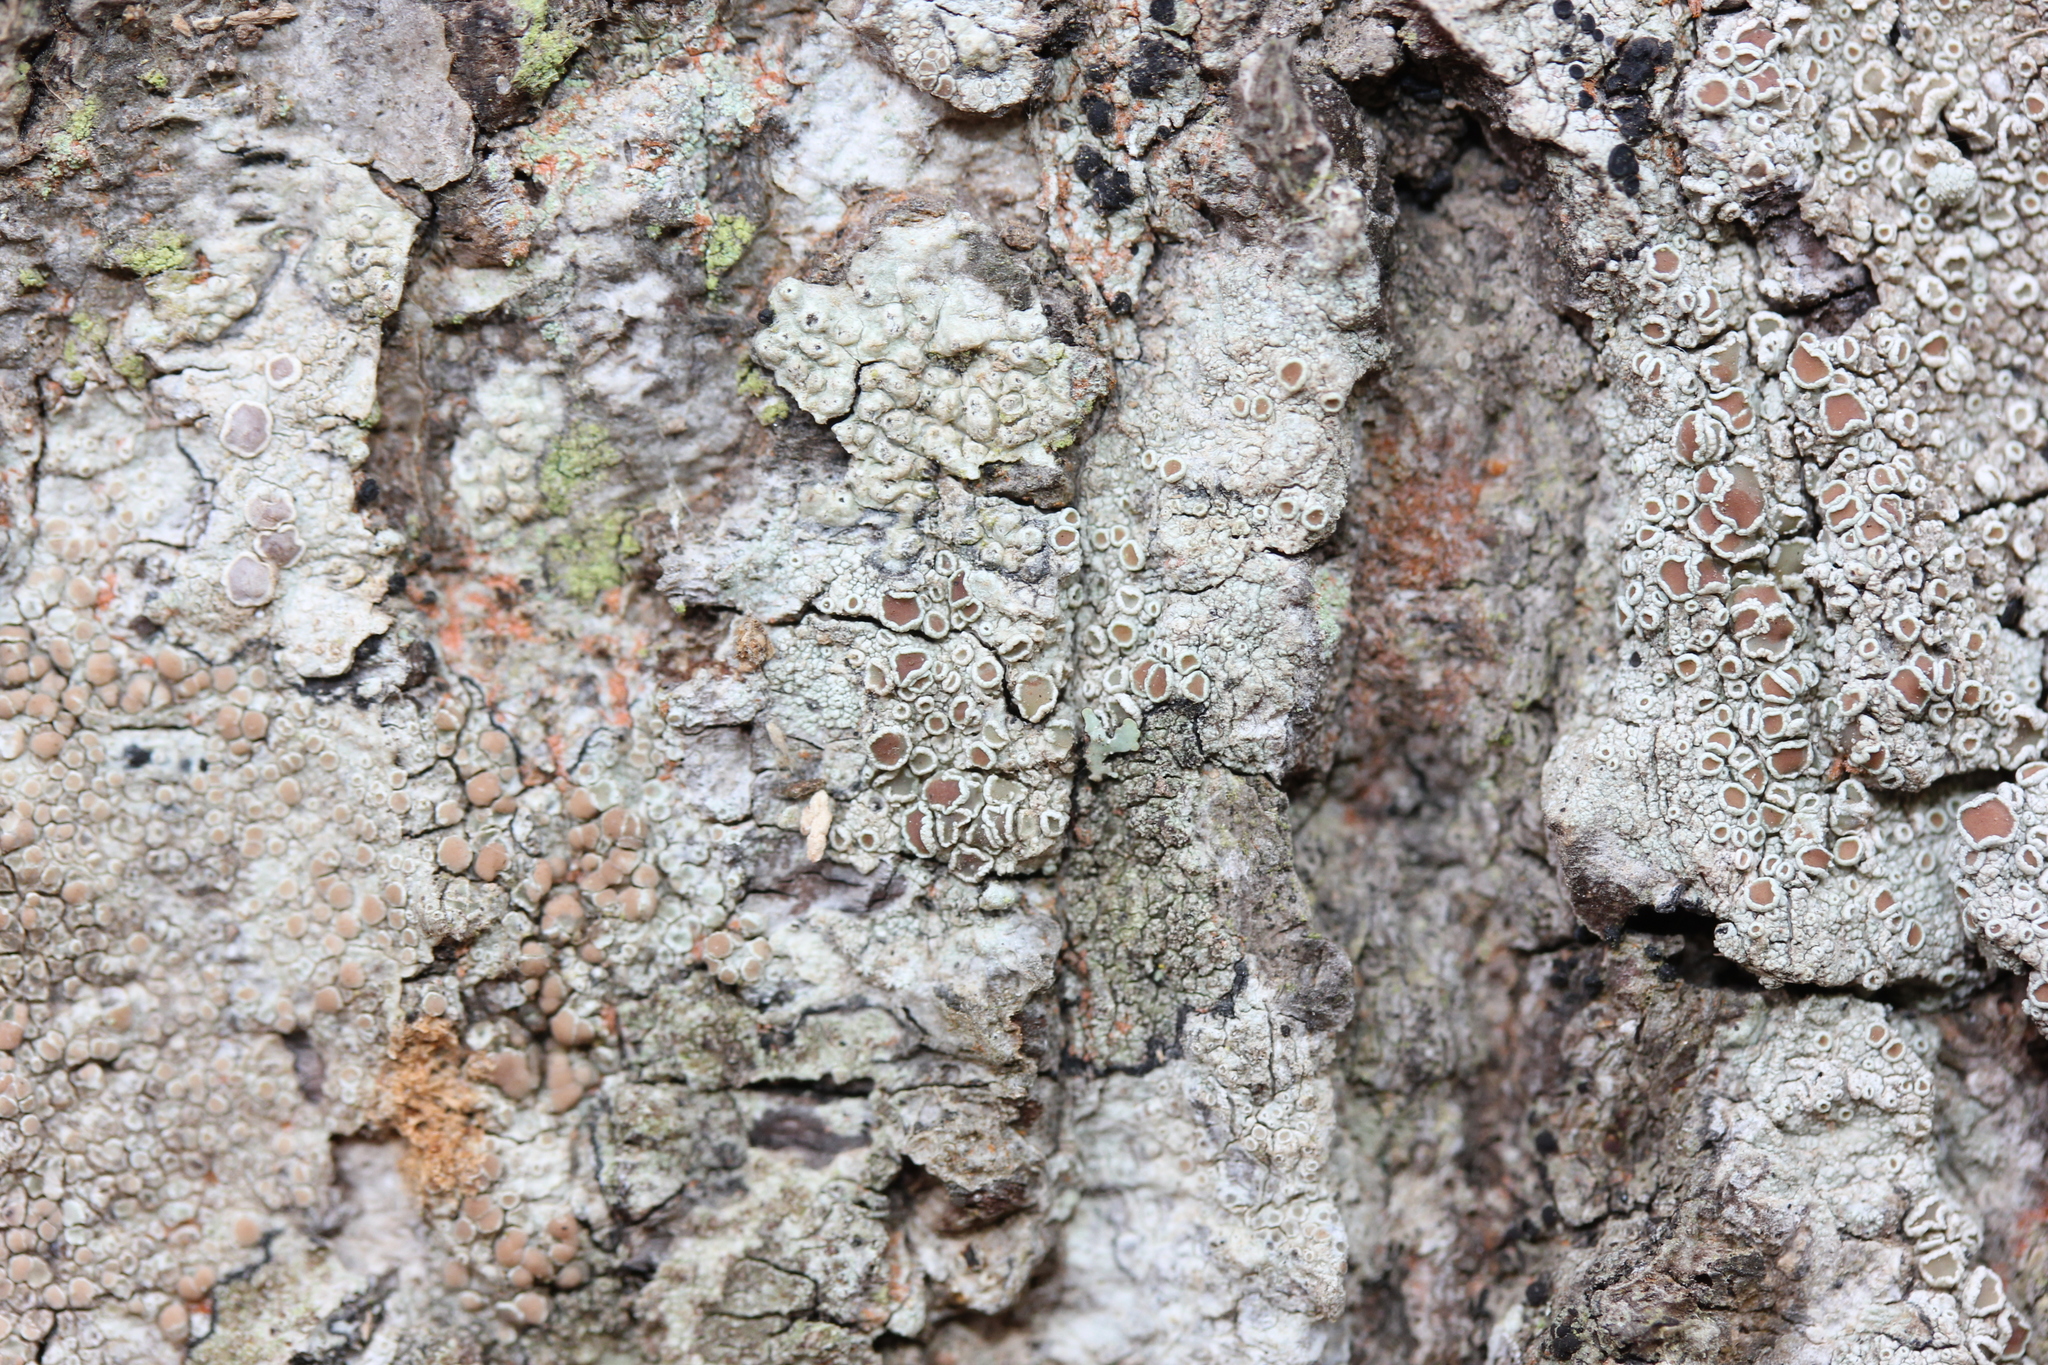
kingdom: Fungi
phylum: Ascomycota
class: Lecanoromycetes
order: Lecanorales
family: Lecanoraceae
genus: Lecanora
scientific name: Lecanora hybocarpa
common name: Bumpy rim-lichen
